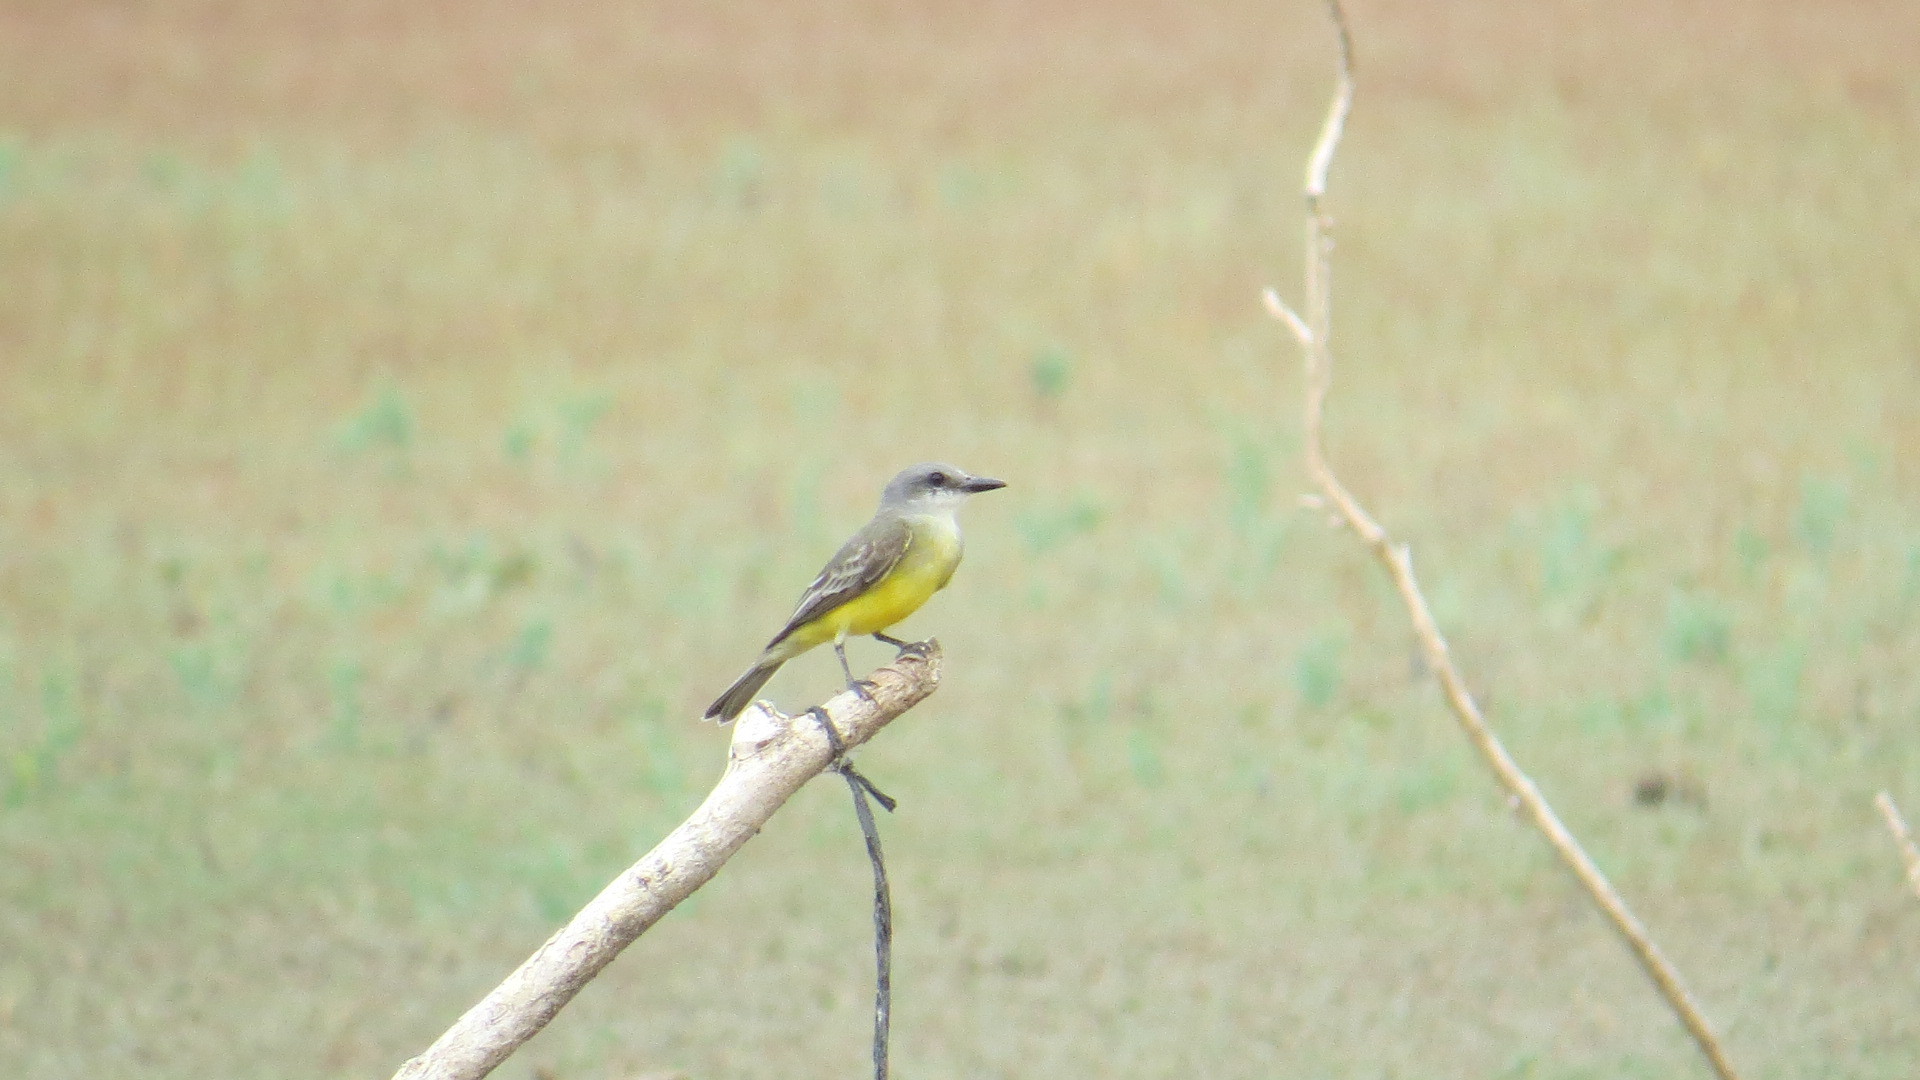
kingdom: Animalia
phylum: Chordata
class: Aves
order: Passeriformes
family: Tyrannidae
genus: Tyrannus
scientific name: Tyrannus melancholicus
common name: Tropical kingbird
